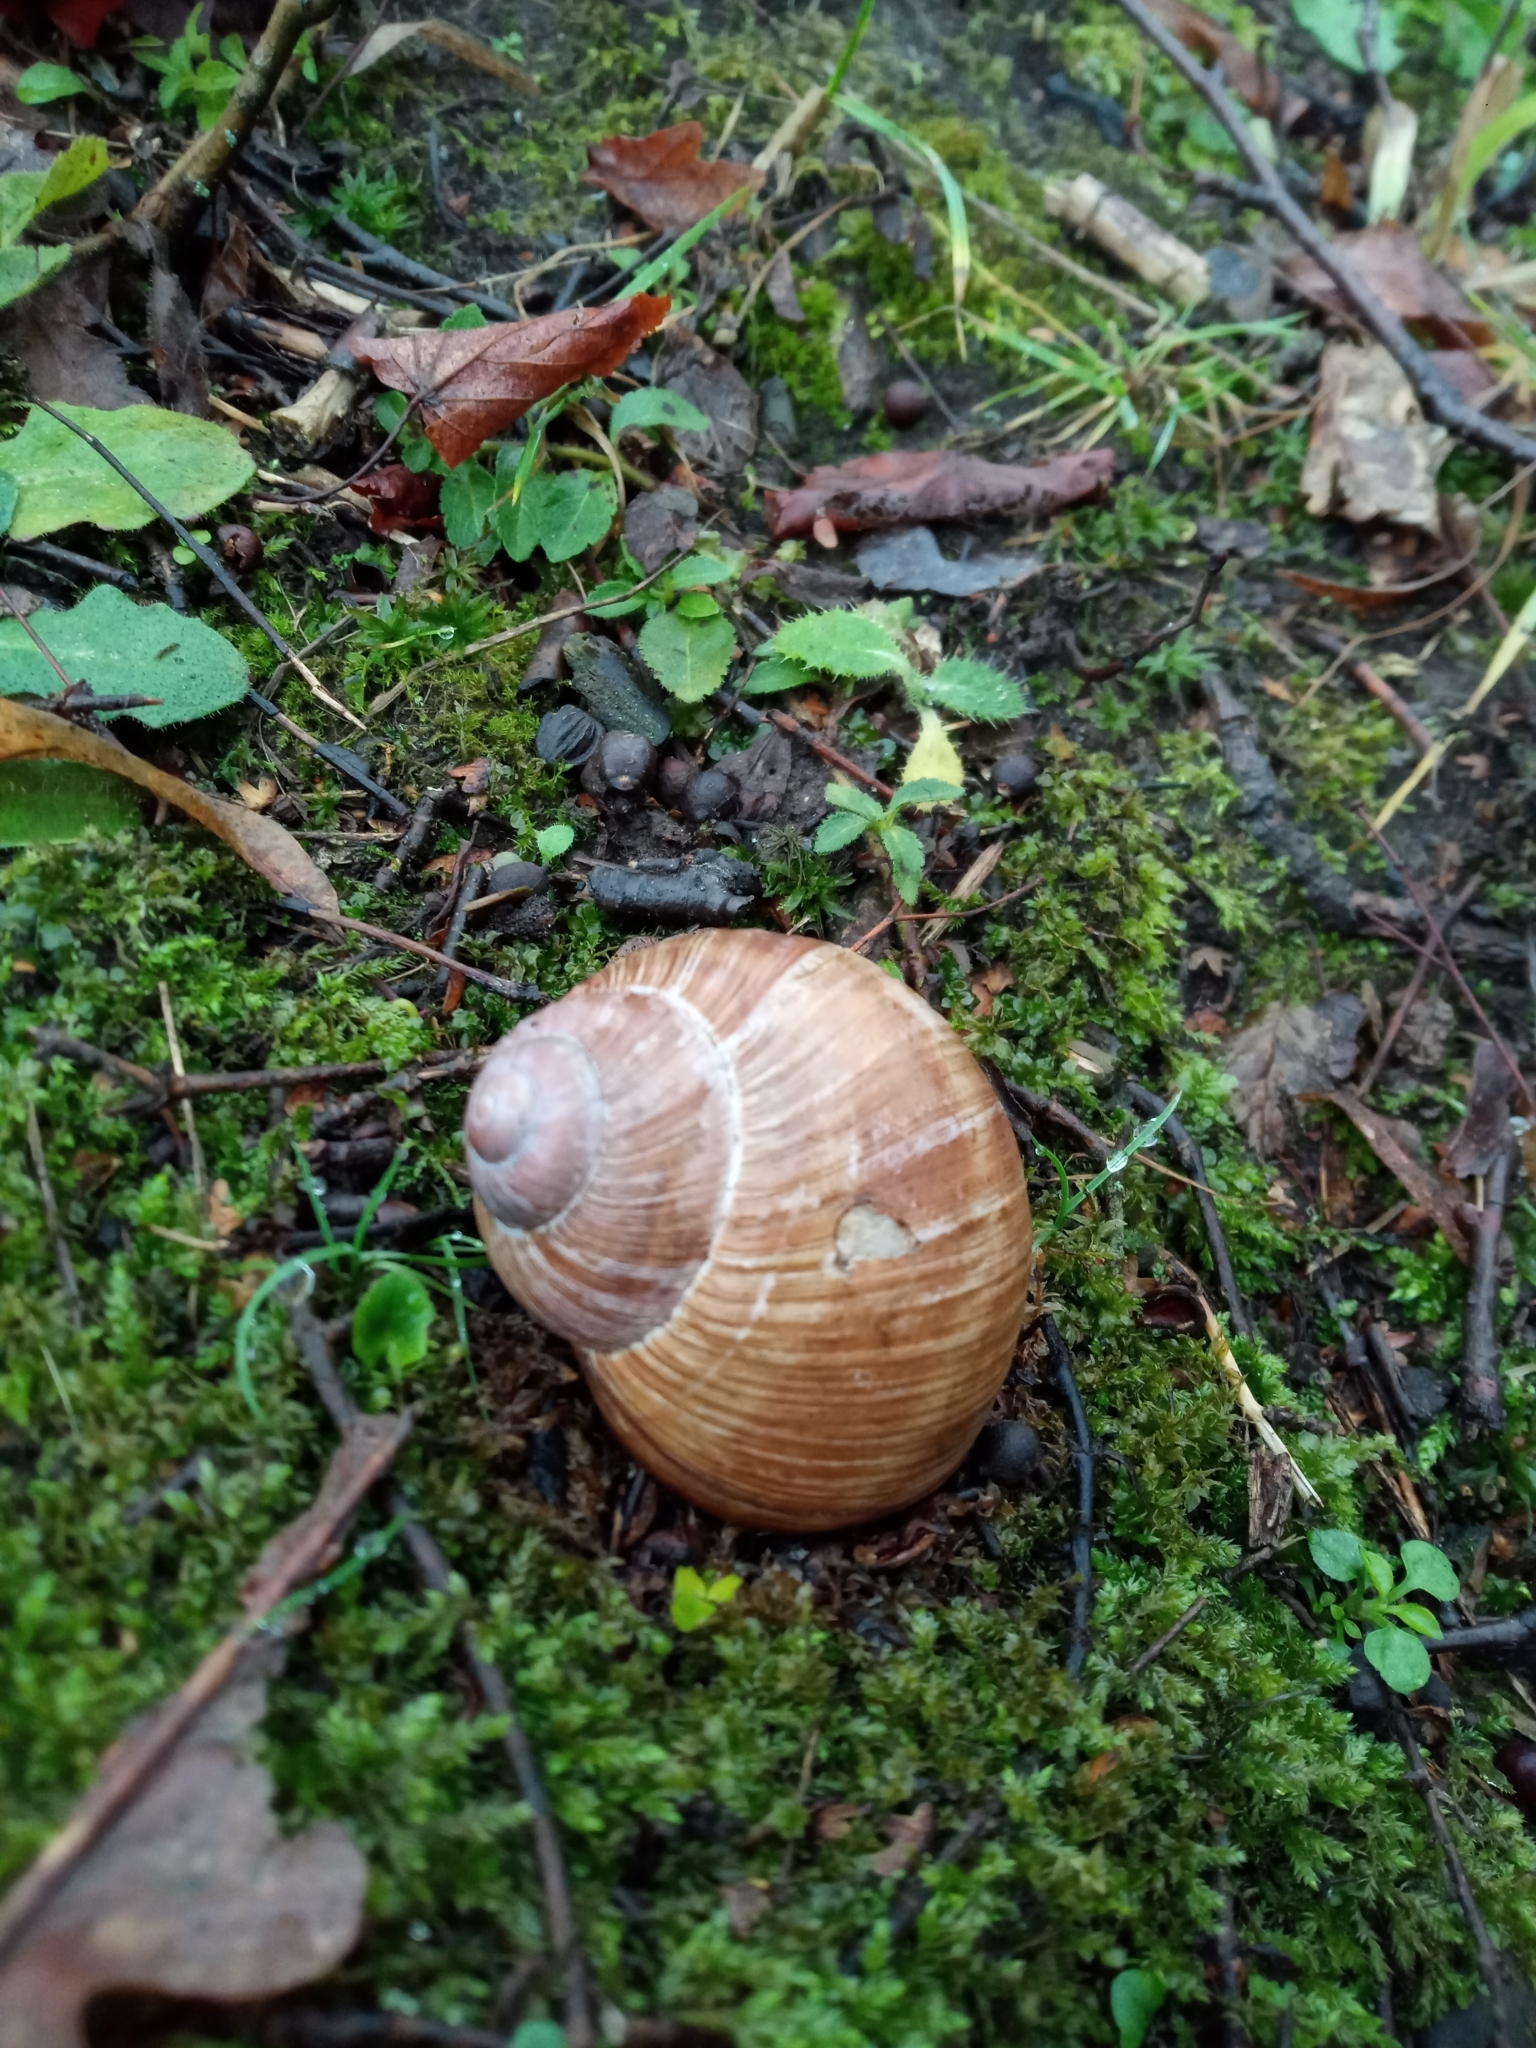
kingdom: Animalia
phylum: Mollusca
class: Gastropoda
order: Stylommatophora
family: Helicidae
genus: Helix
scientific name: Helix pomatia
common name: Roman snail
